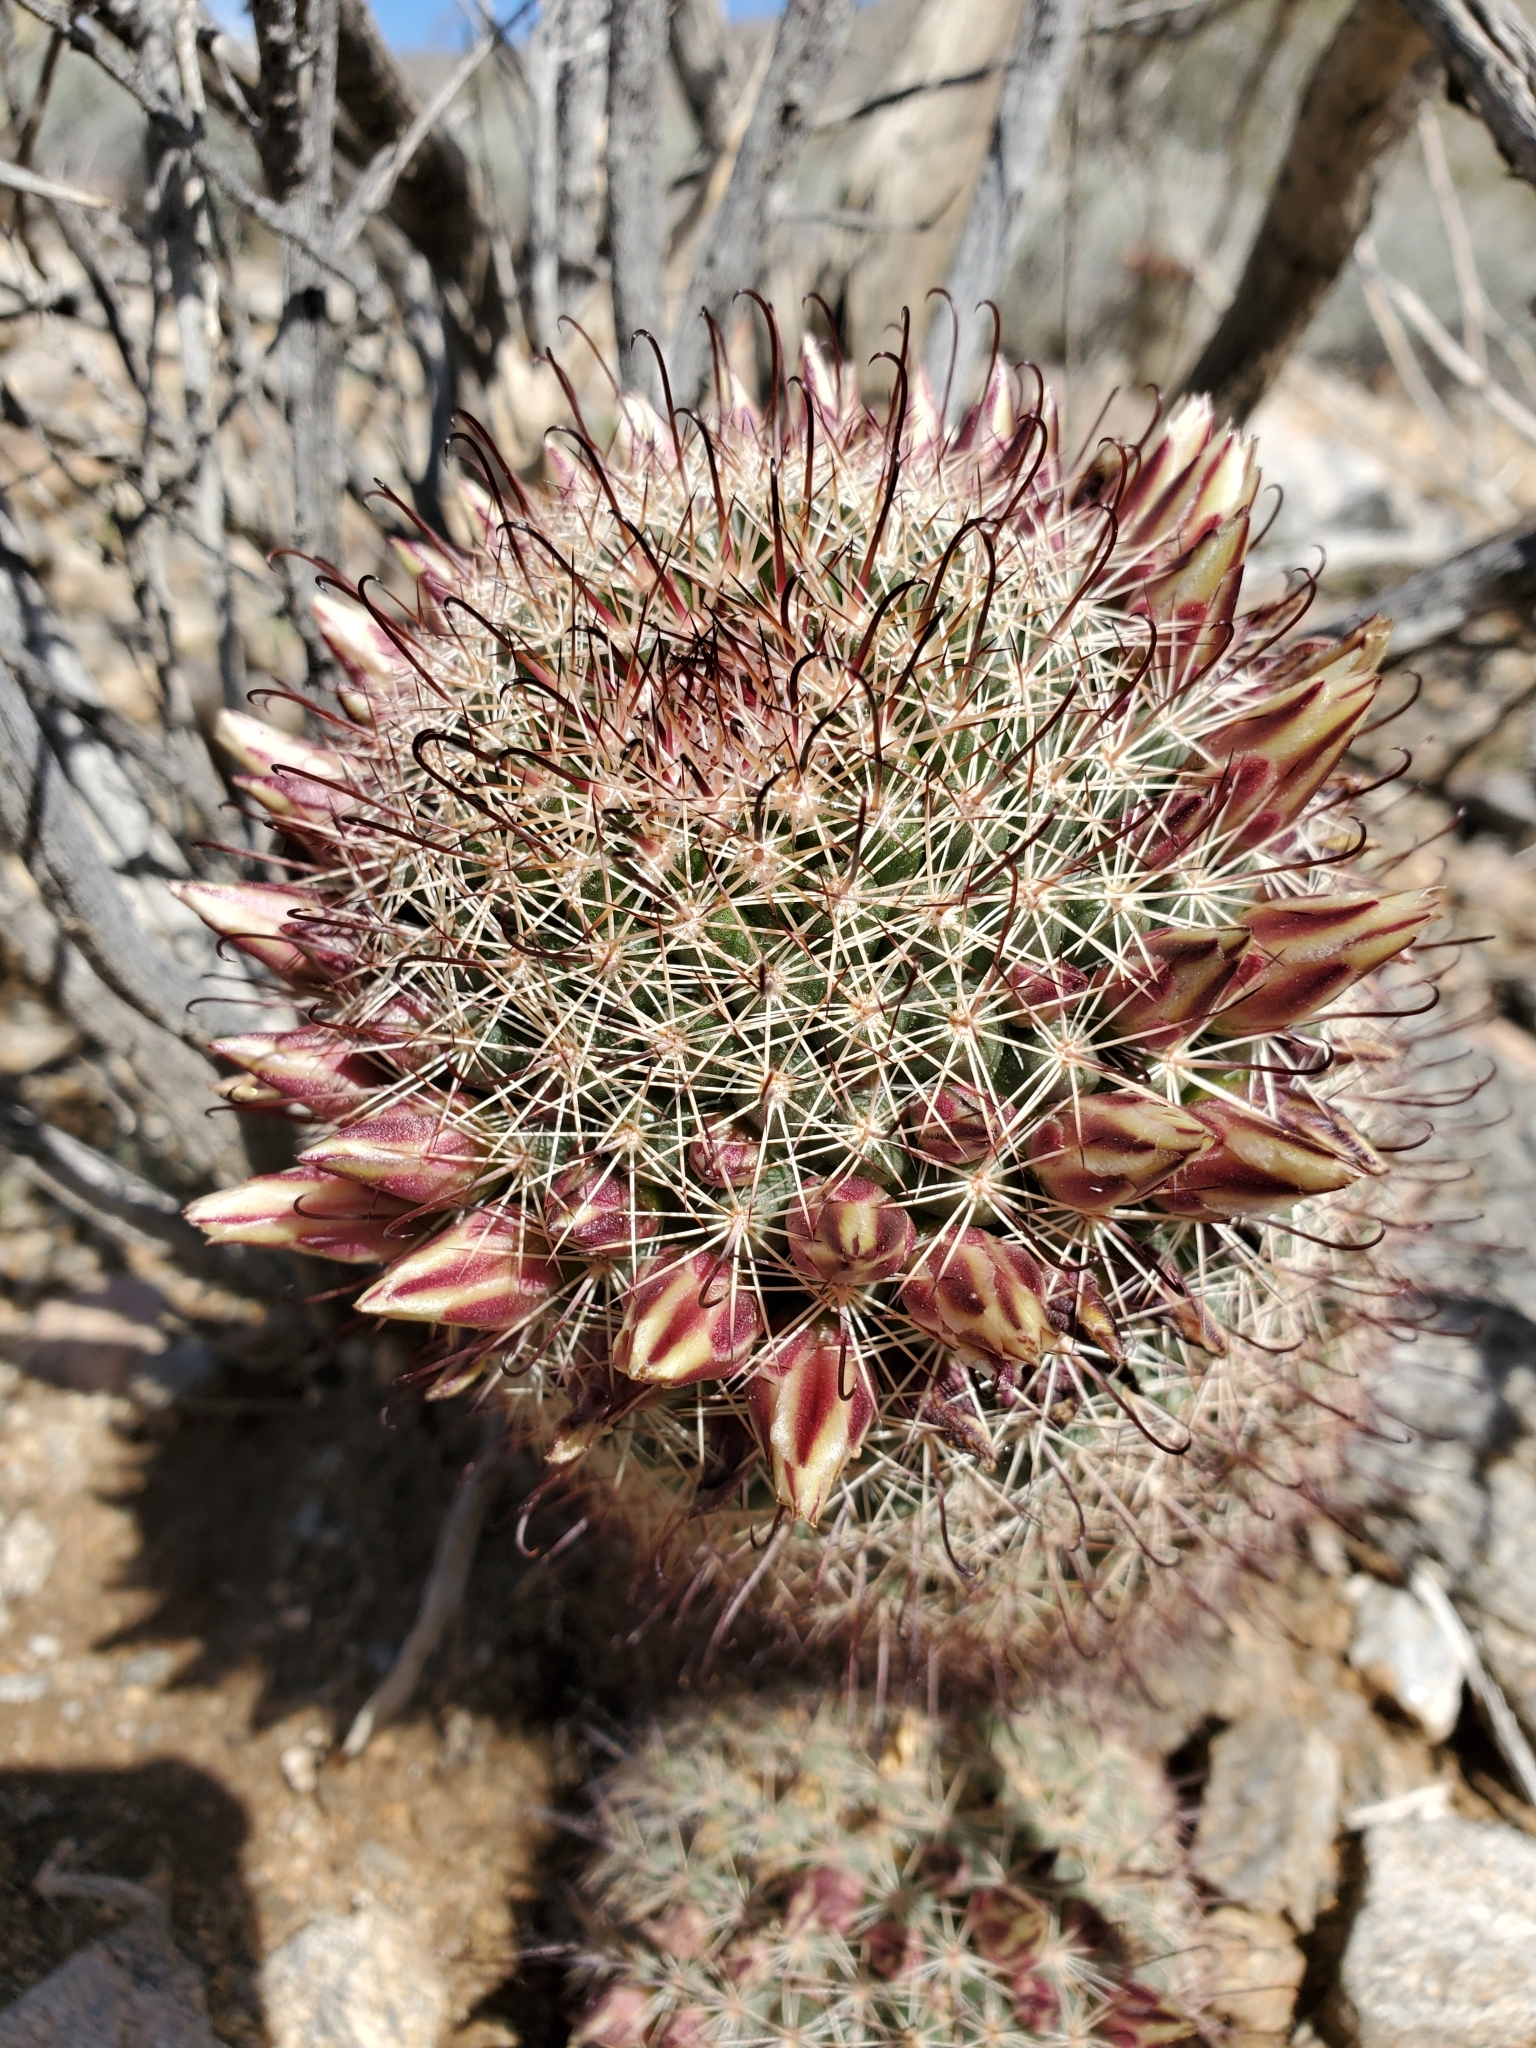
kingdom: Plantae
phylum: Tracheophyta
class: Magnoliopsida
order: Caryophyllales
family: Cactaceae
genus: Cochemiea
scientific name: Cochemiea dioica
